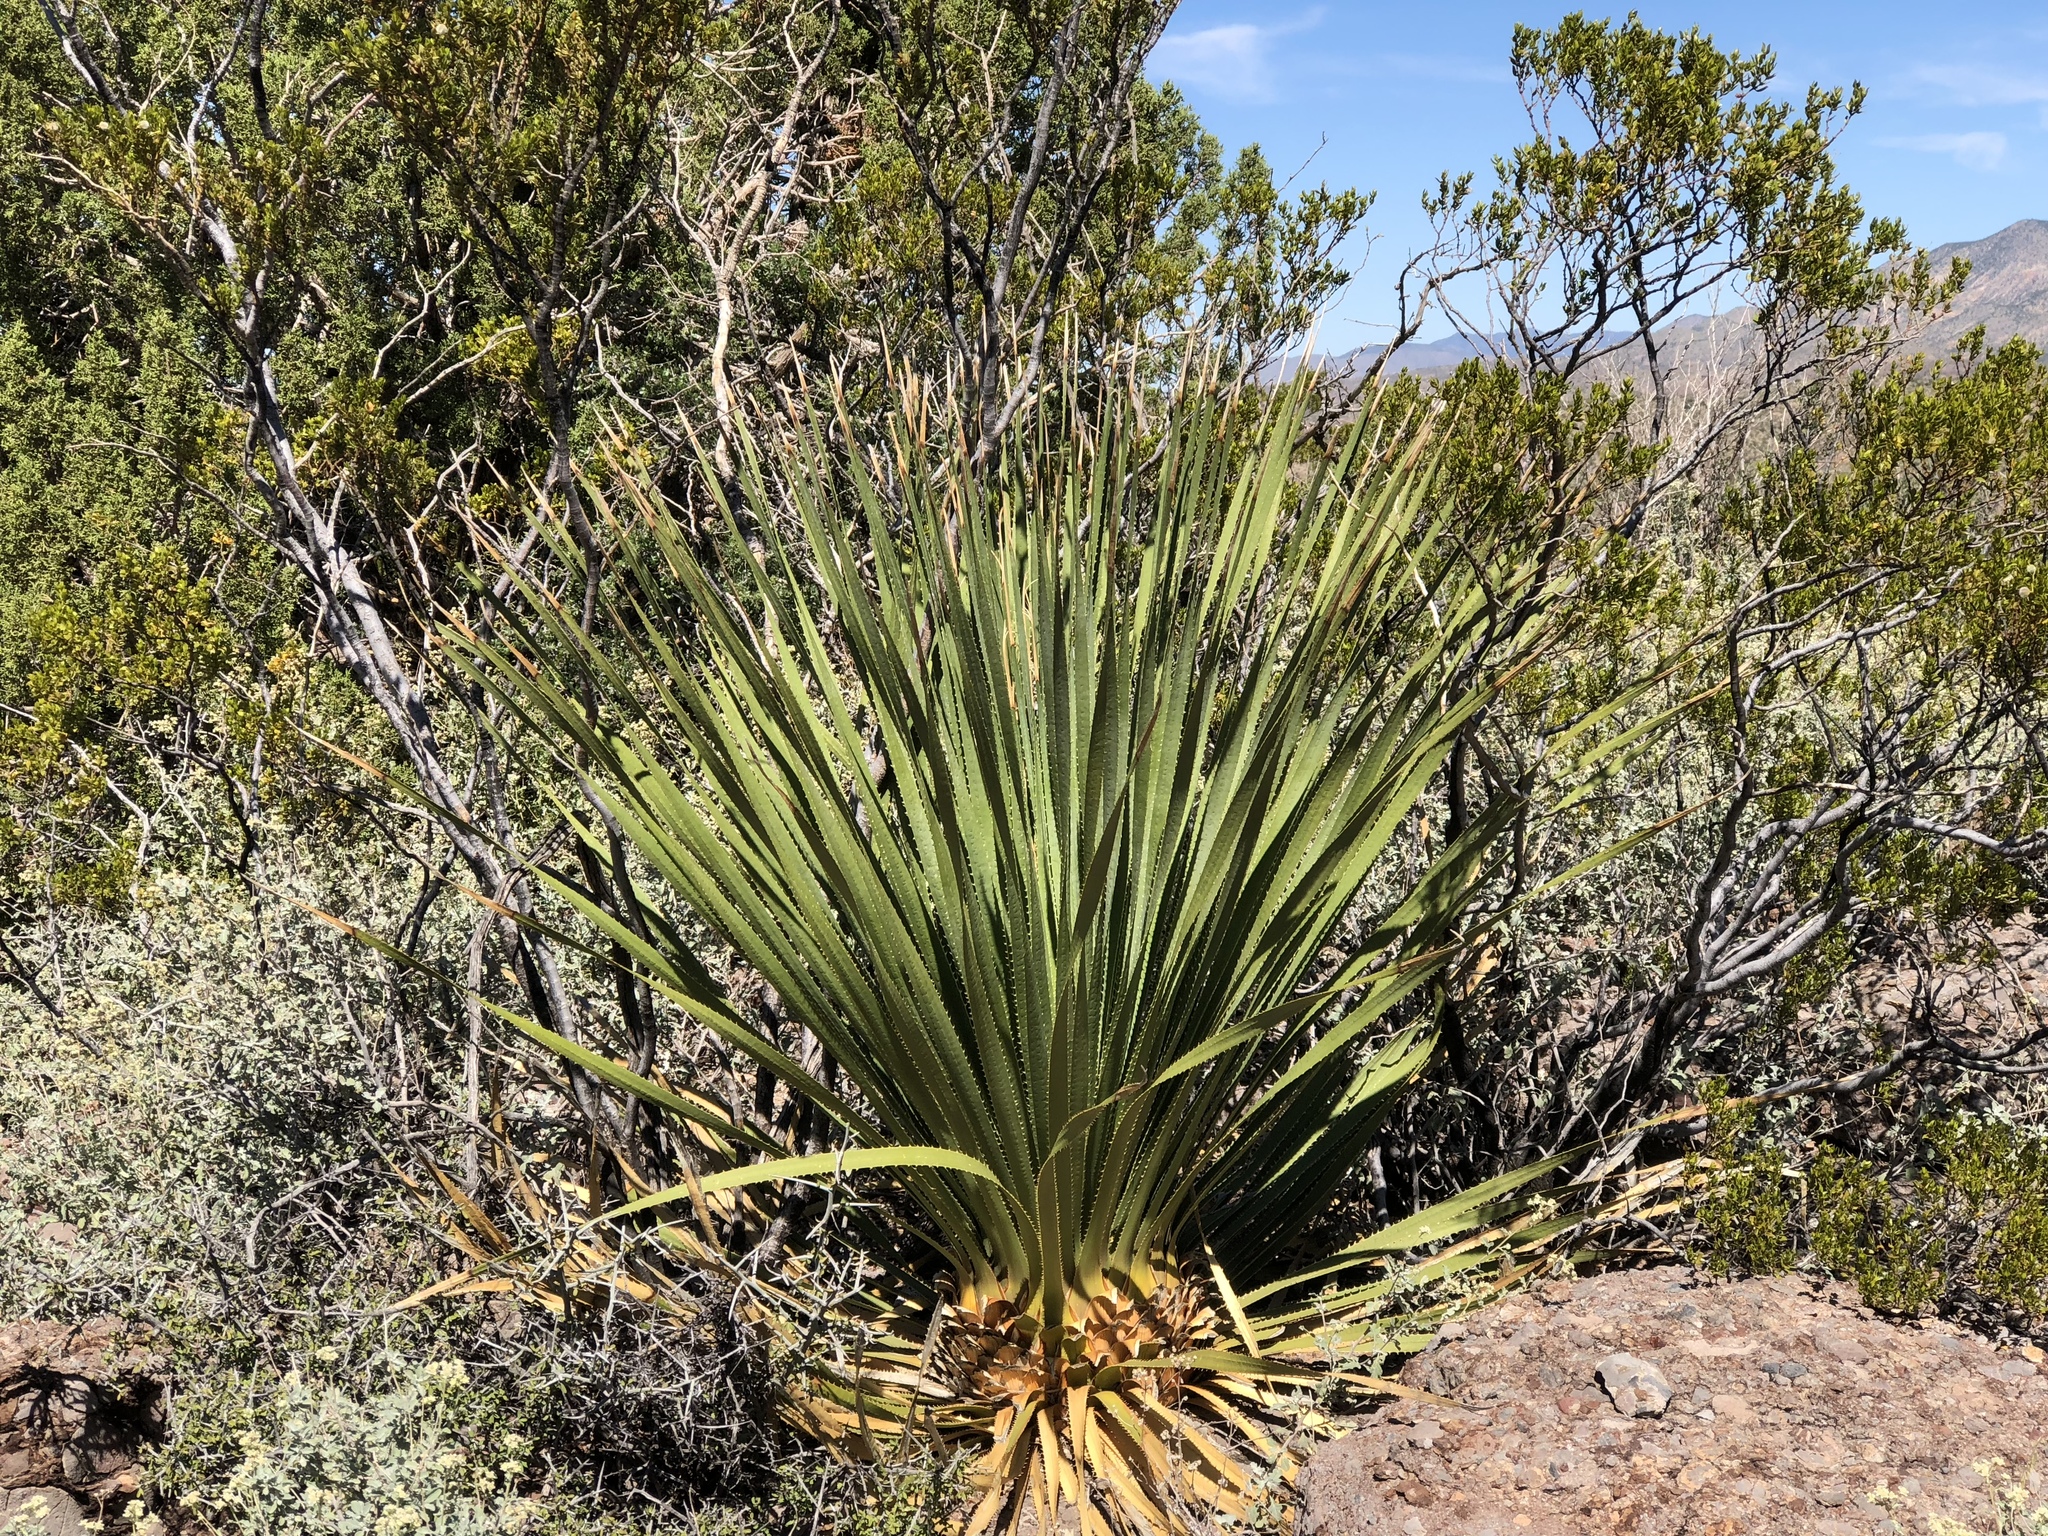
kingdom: Plantae
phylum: Tracheophyta
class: Liliopsida
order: Asparagales
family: Asparagaceae
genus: Dasylirion
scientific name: Dasylirion wheeleri
